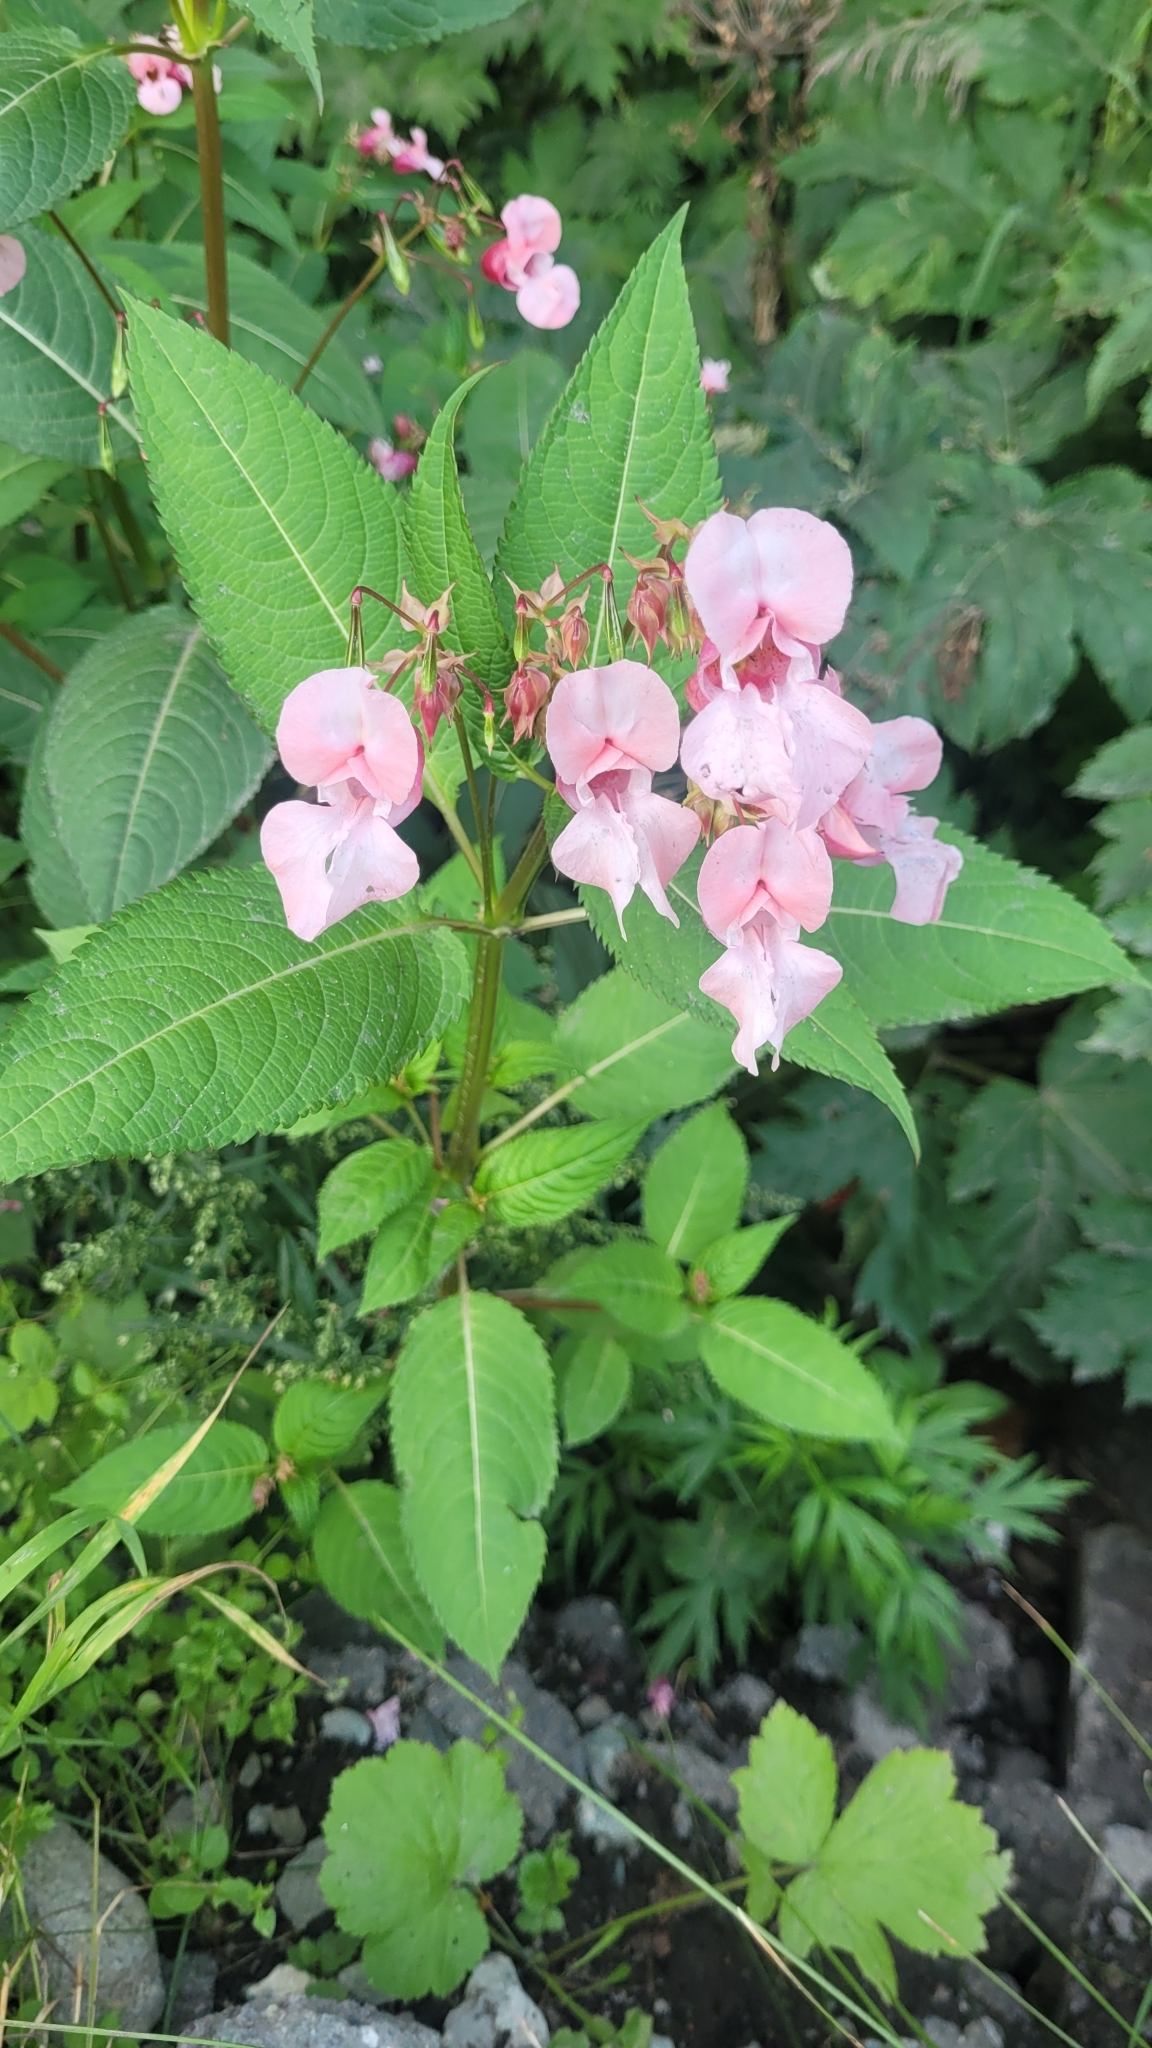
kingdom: Plantae
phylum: Tracheophyta
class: Magnoliopsida
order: Ericales
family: Balsaminaceae
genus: Impatiens
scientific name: Impatiens glandulifera
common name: Himalayan balsam
